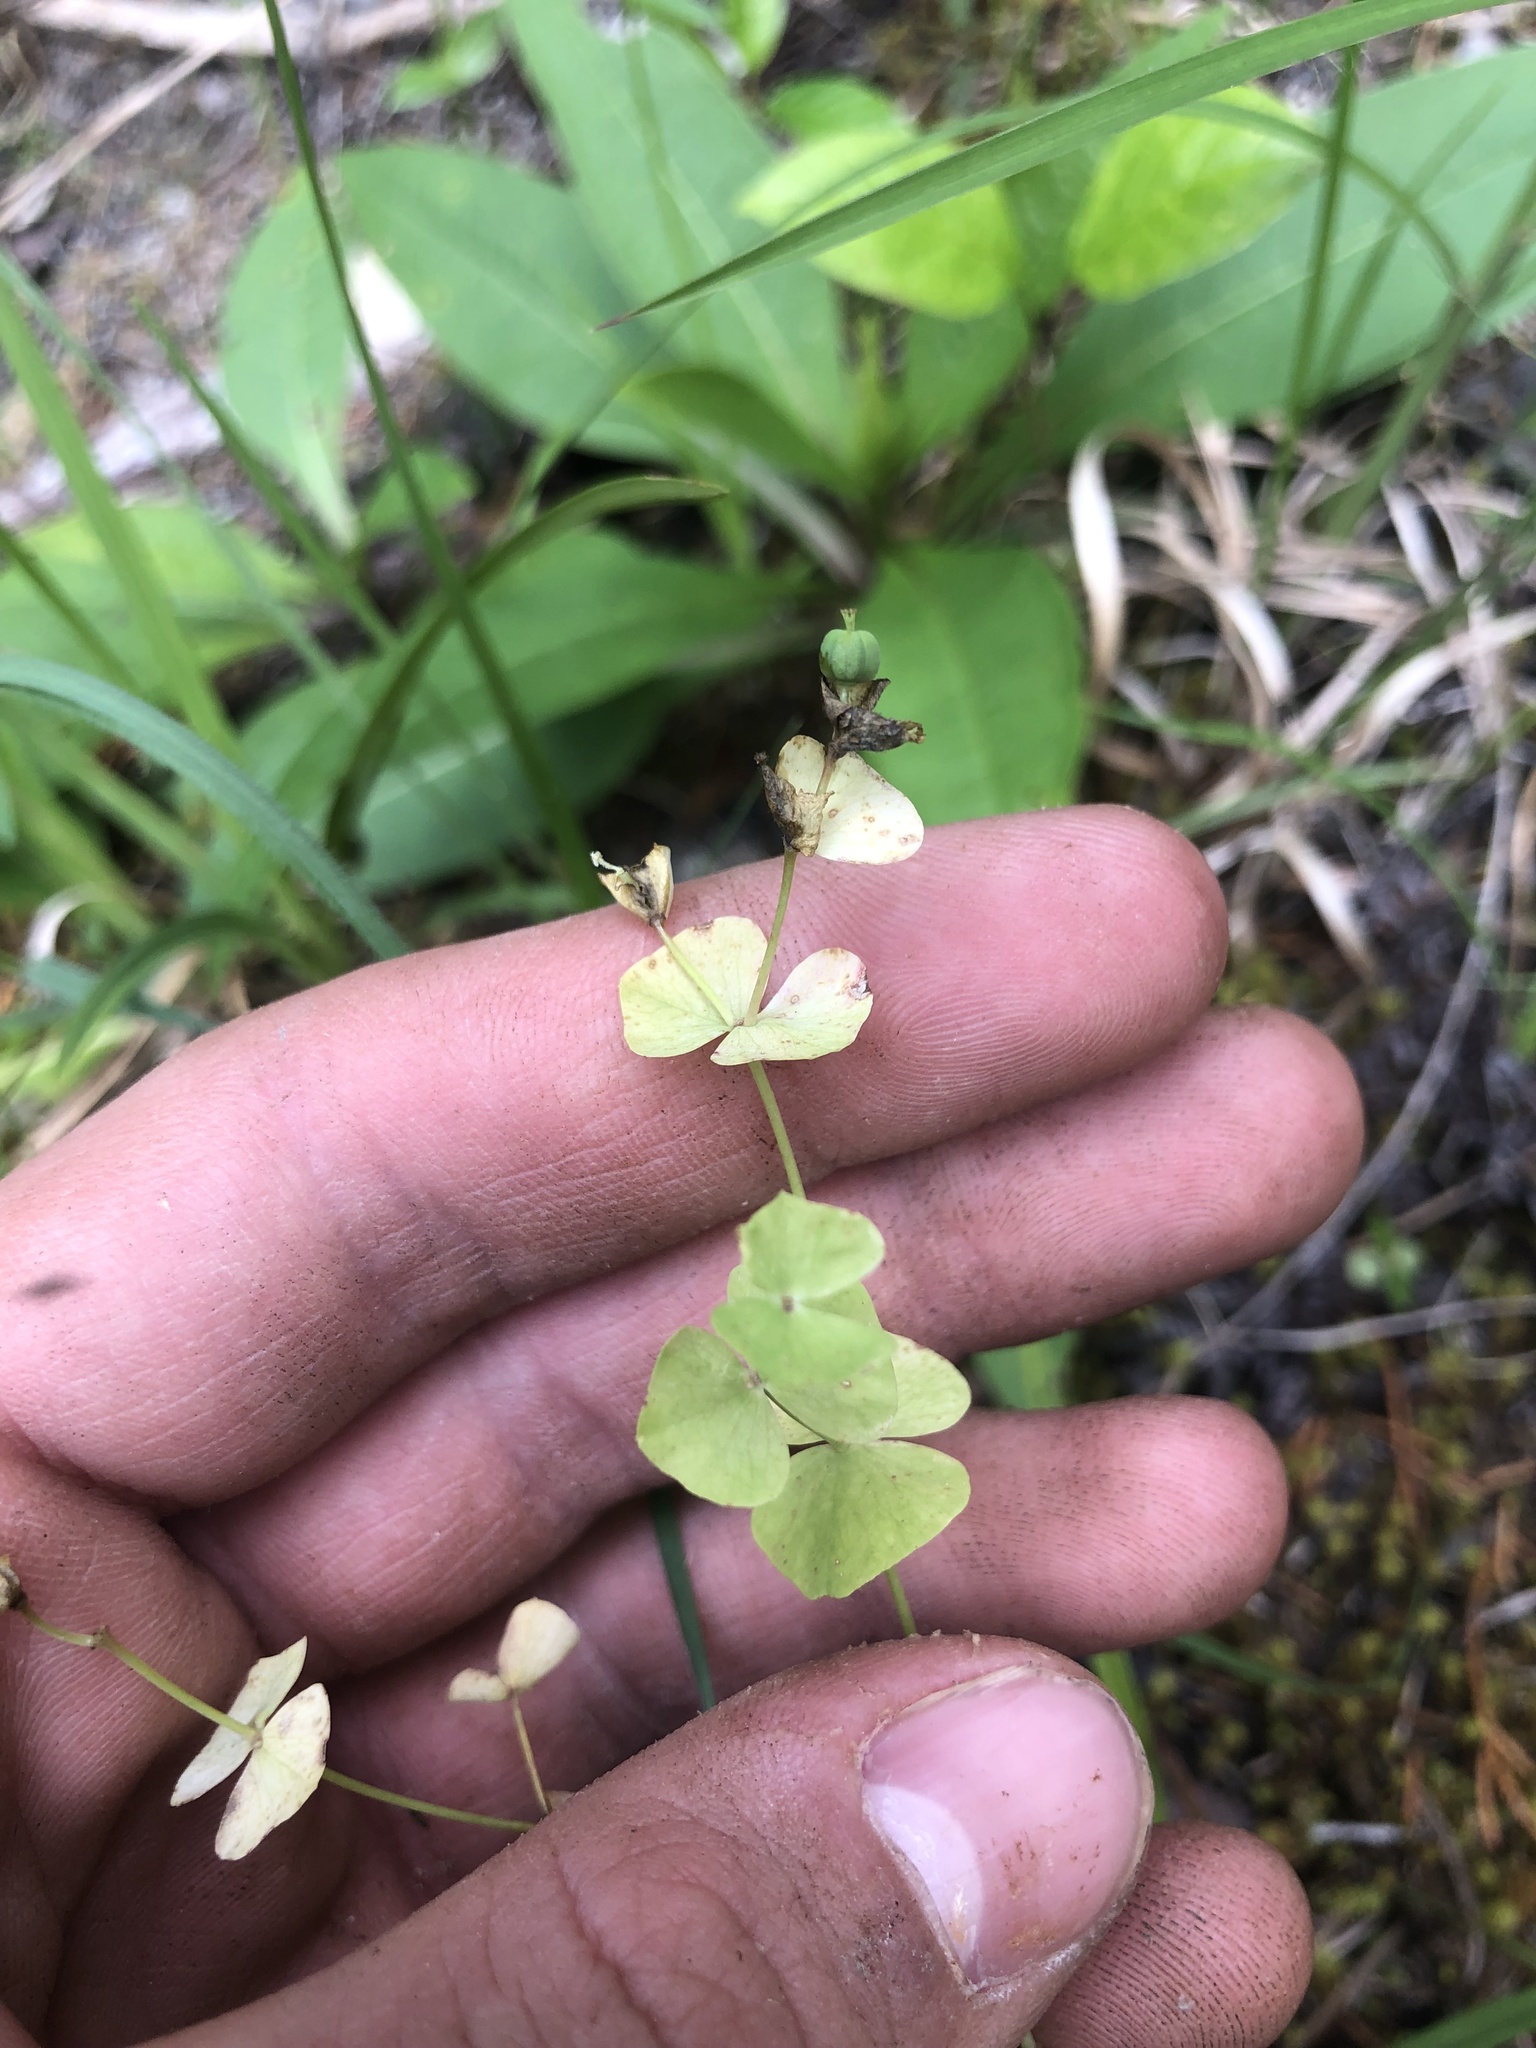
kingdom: Plantae
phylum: Tracheophyta
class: Magnoliopsida
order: Malpighiales
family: Euphorbiaceae
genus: Euphorbia
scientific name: Euphorbia commutata
